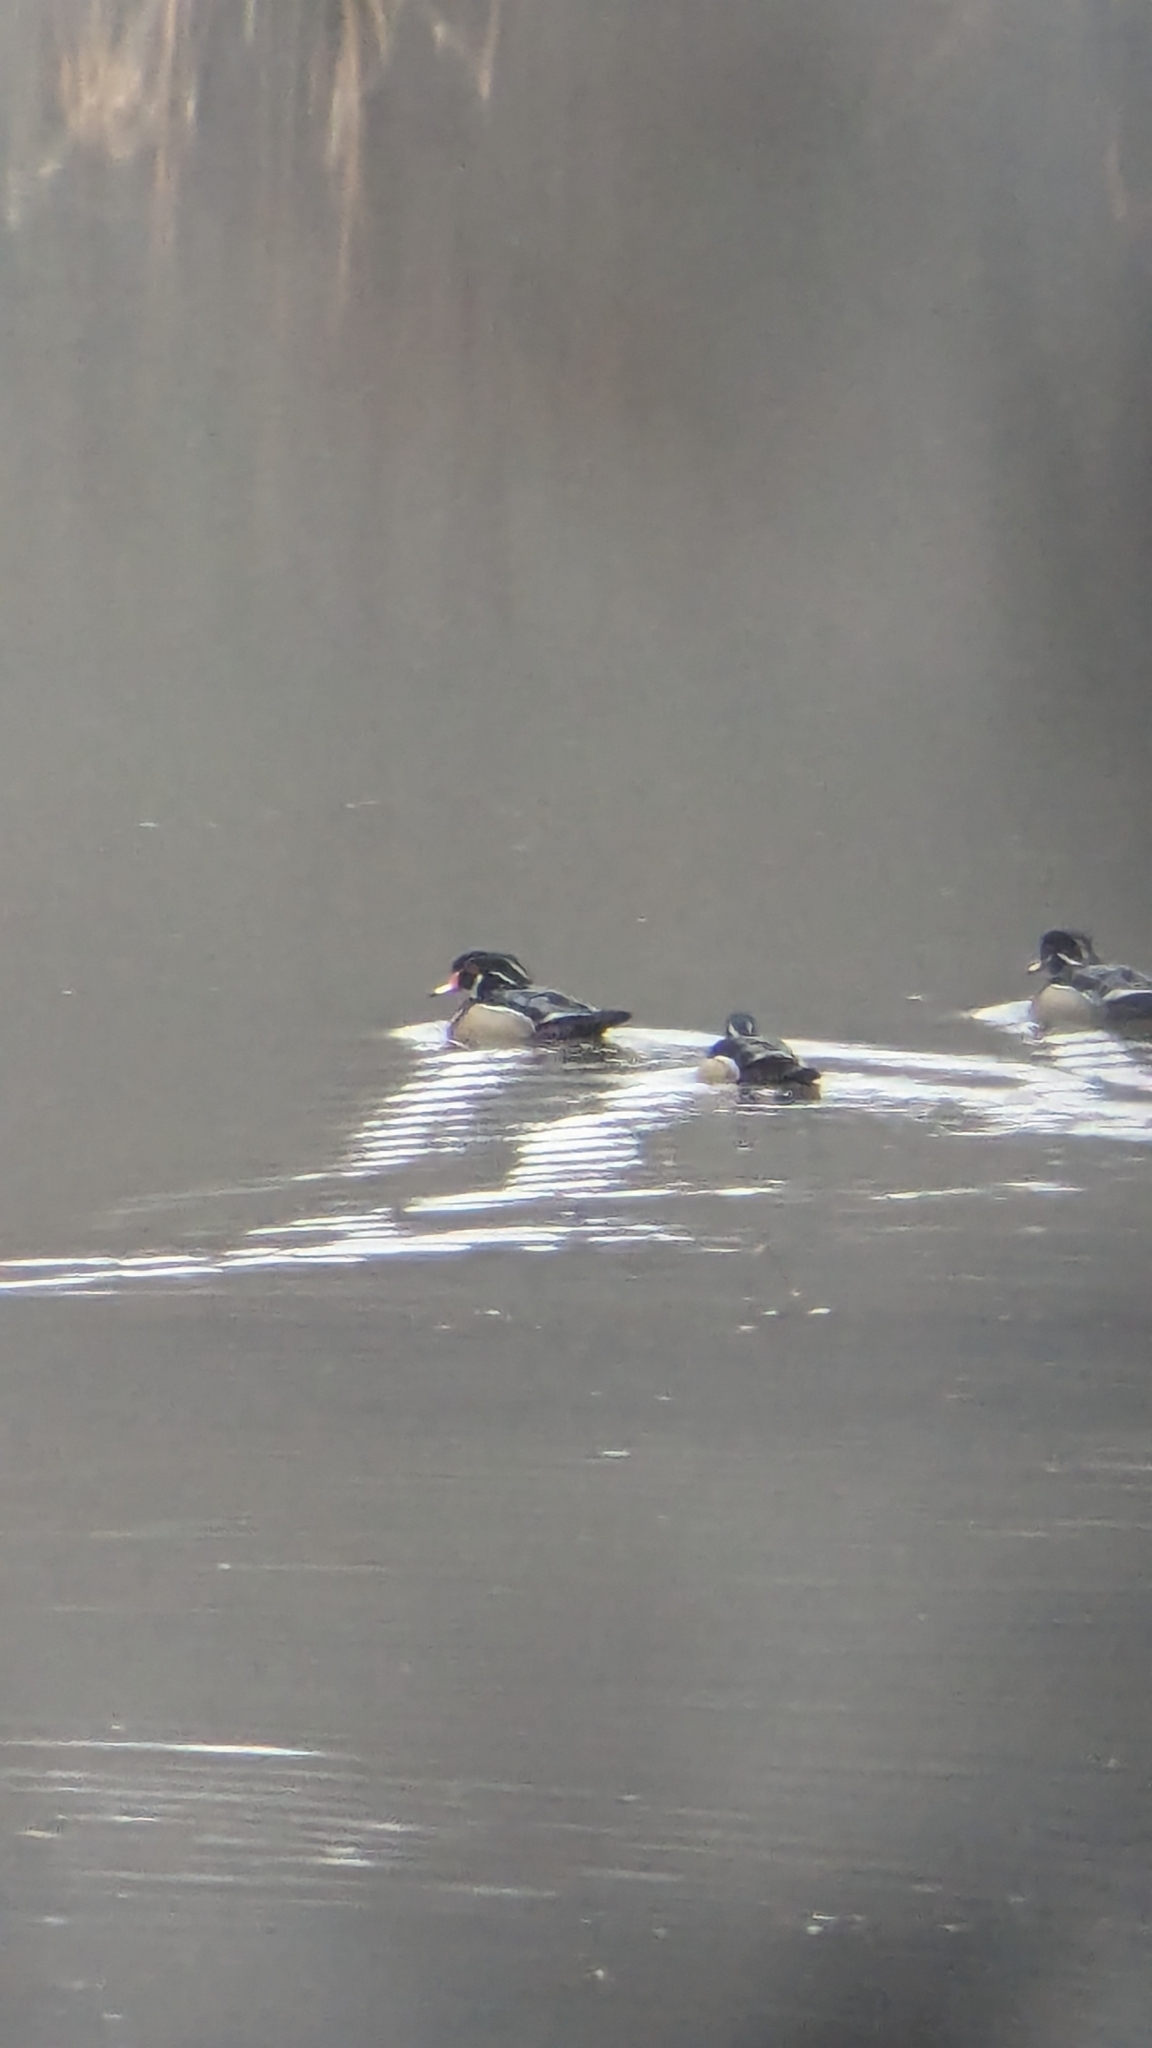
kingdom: Animalia
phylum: Chordata
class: Aves
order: Anseriformes
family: Anatidae
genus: Aix
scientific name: Aix sponsa
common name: Wood duck
